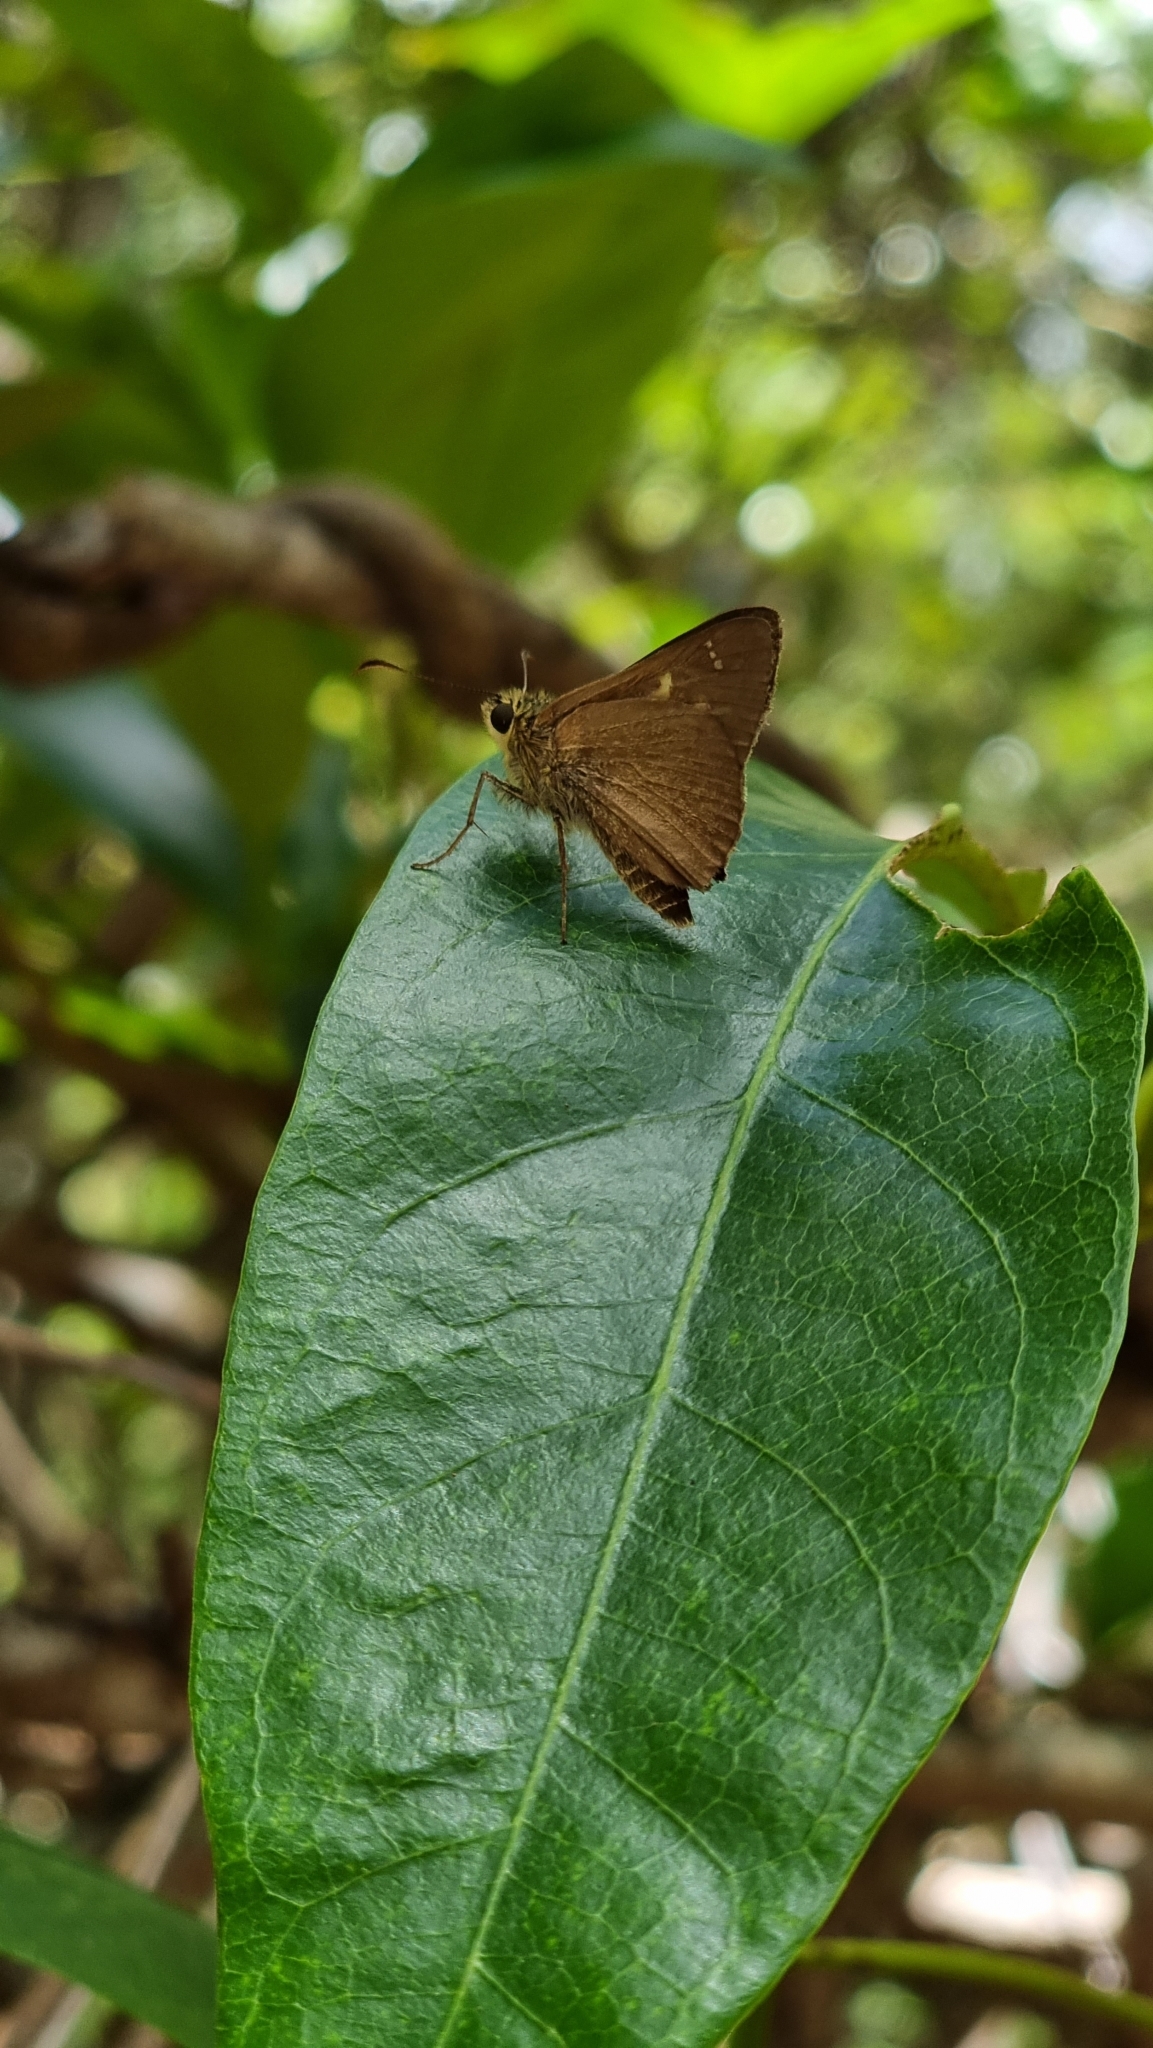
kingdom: Animalia
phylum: Arthropoda
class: Insecta
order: Lepidoptera
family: Hesperiidae
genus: Toxidia
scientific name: Toxidia
